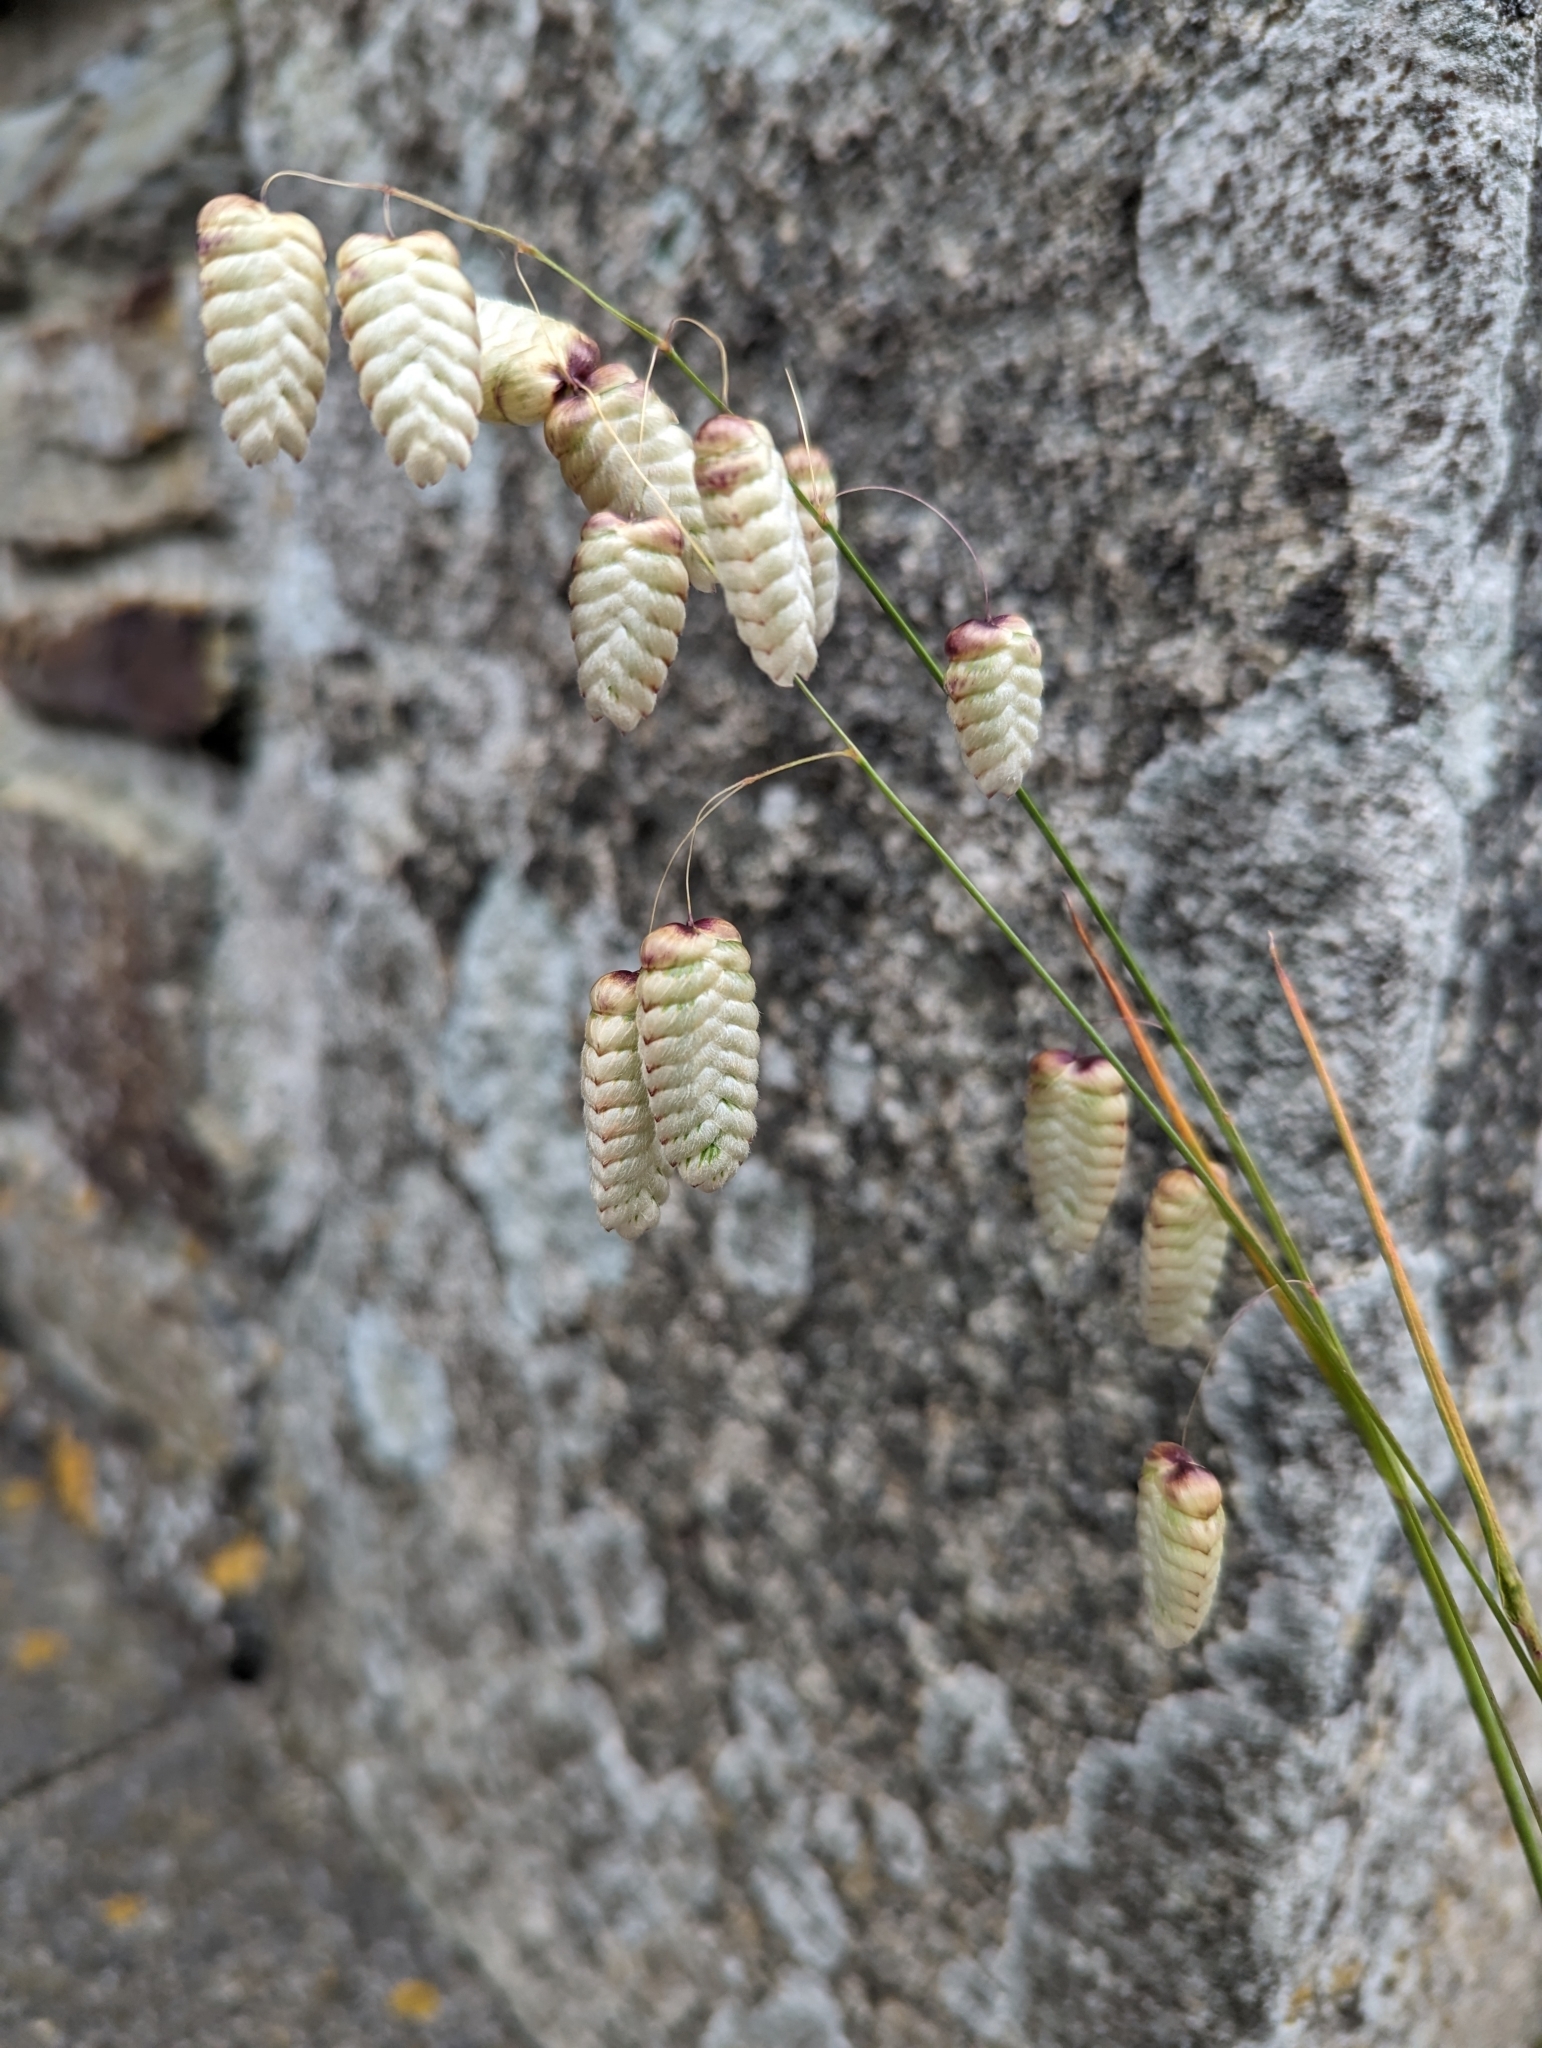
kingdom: Plantae
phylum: Tracheophyta
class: Liliopsida
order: Poales
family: Poaceae
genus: Briza
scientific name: Briza maxima
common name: Big quakinggrass
